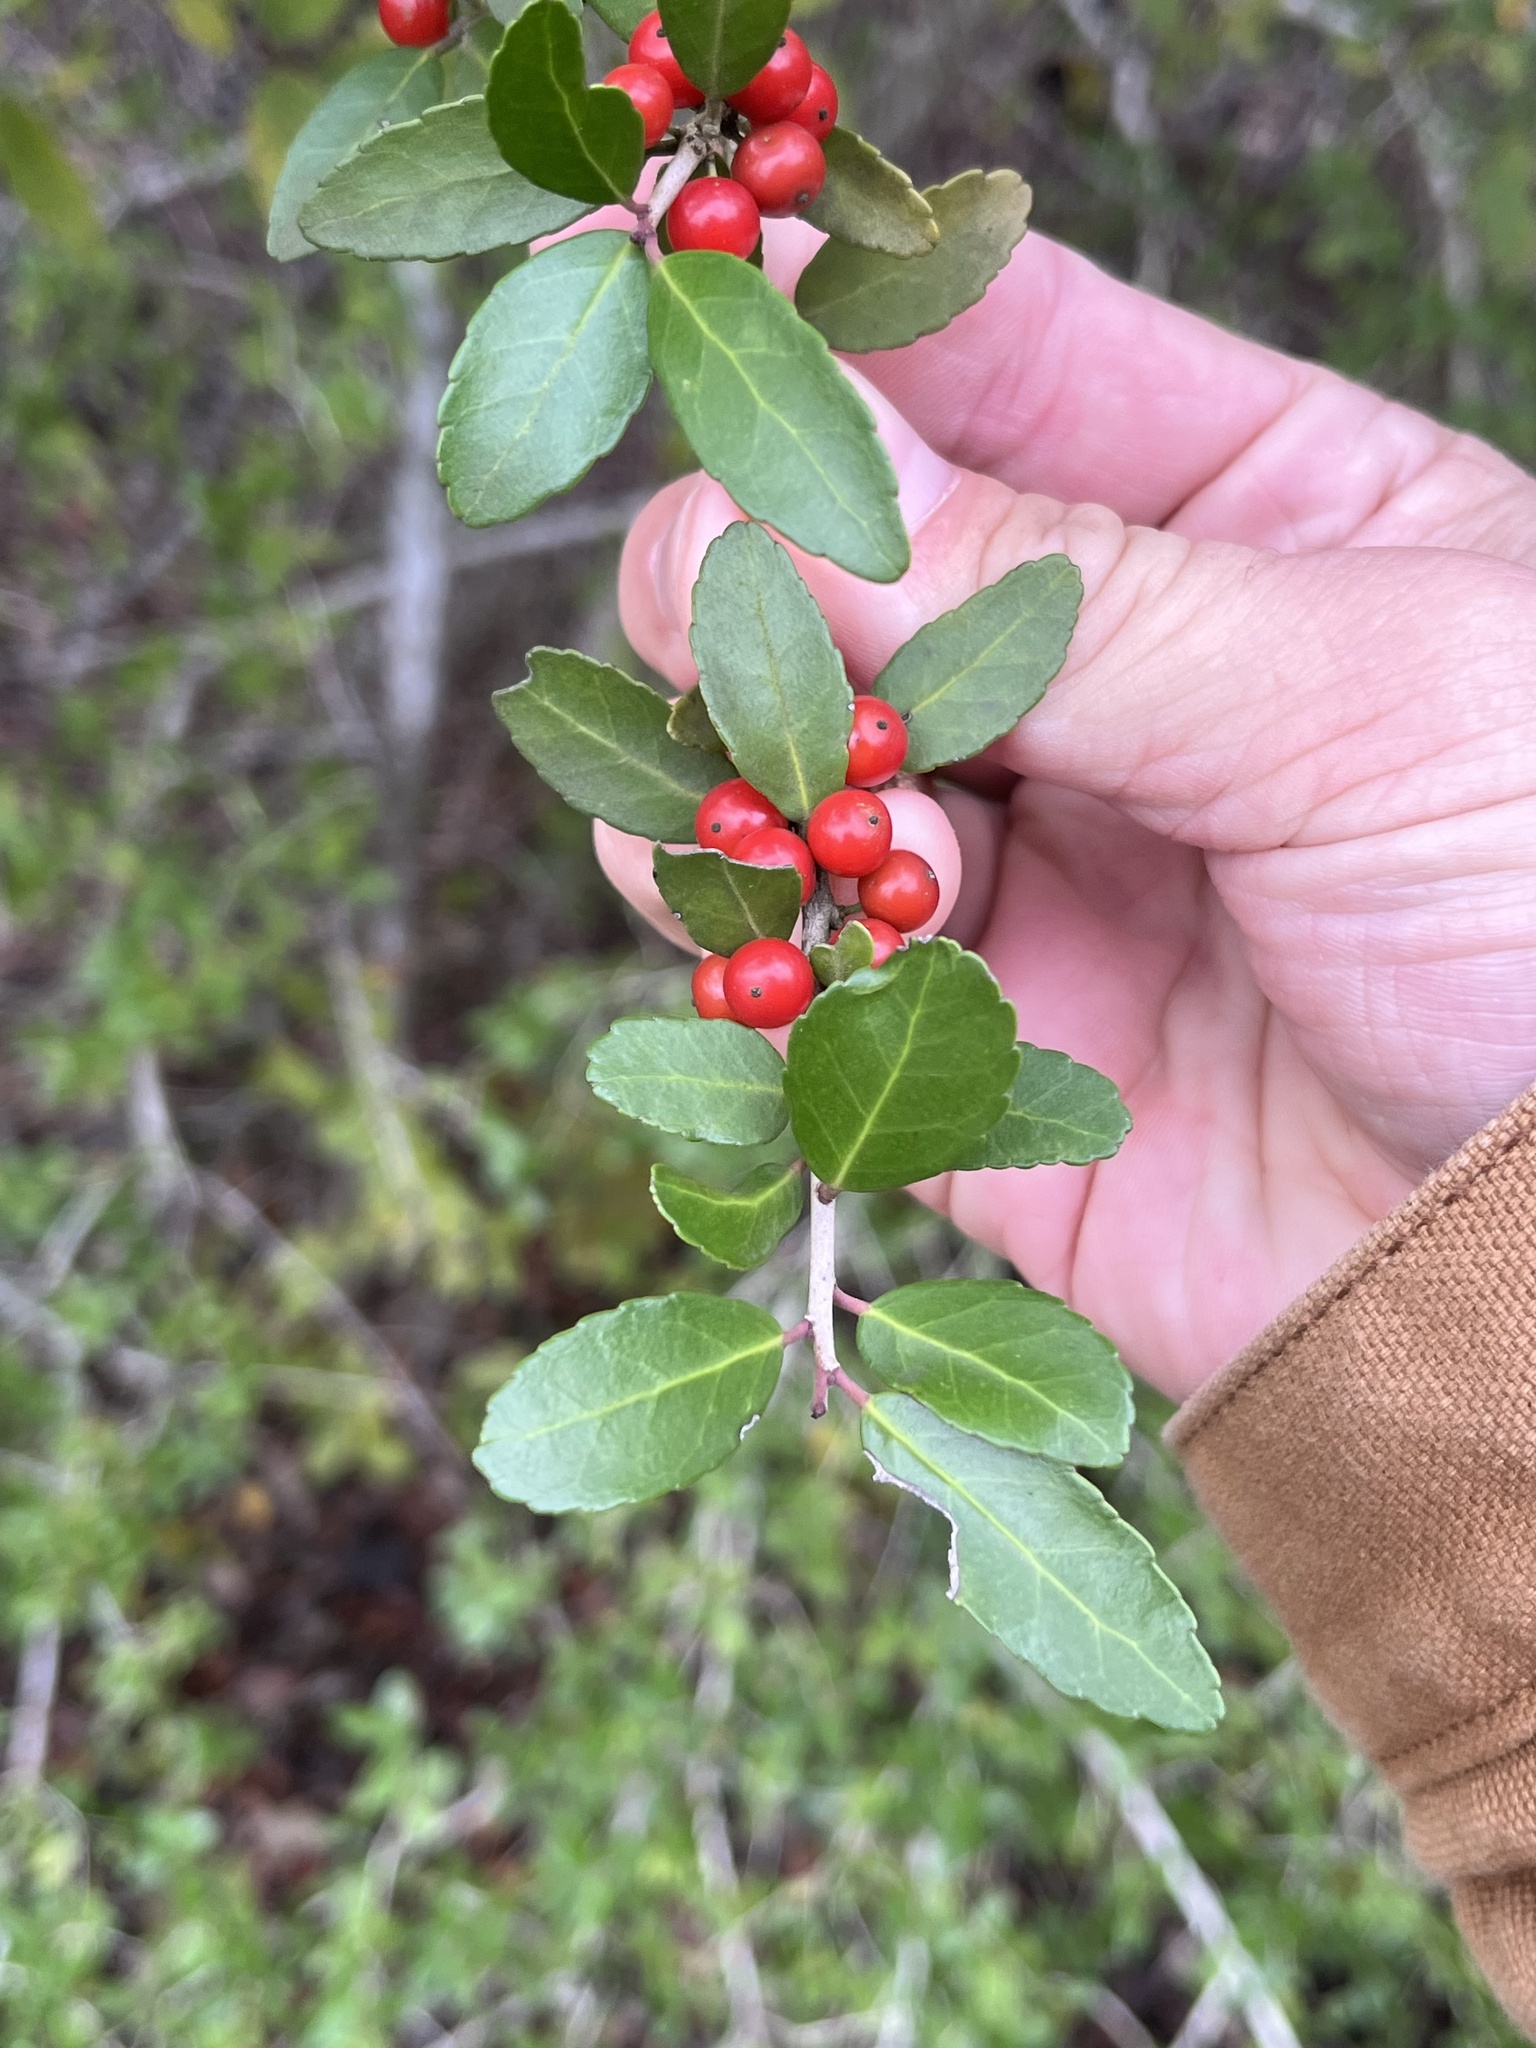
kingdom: Plantae
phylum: Tracheophyta
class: Magnoliopsida
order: Aquifoliales
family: Aquifoliaceae
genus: Ilex
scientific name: Ilex vomitoria
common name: Yaupon holly
